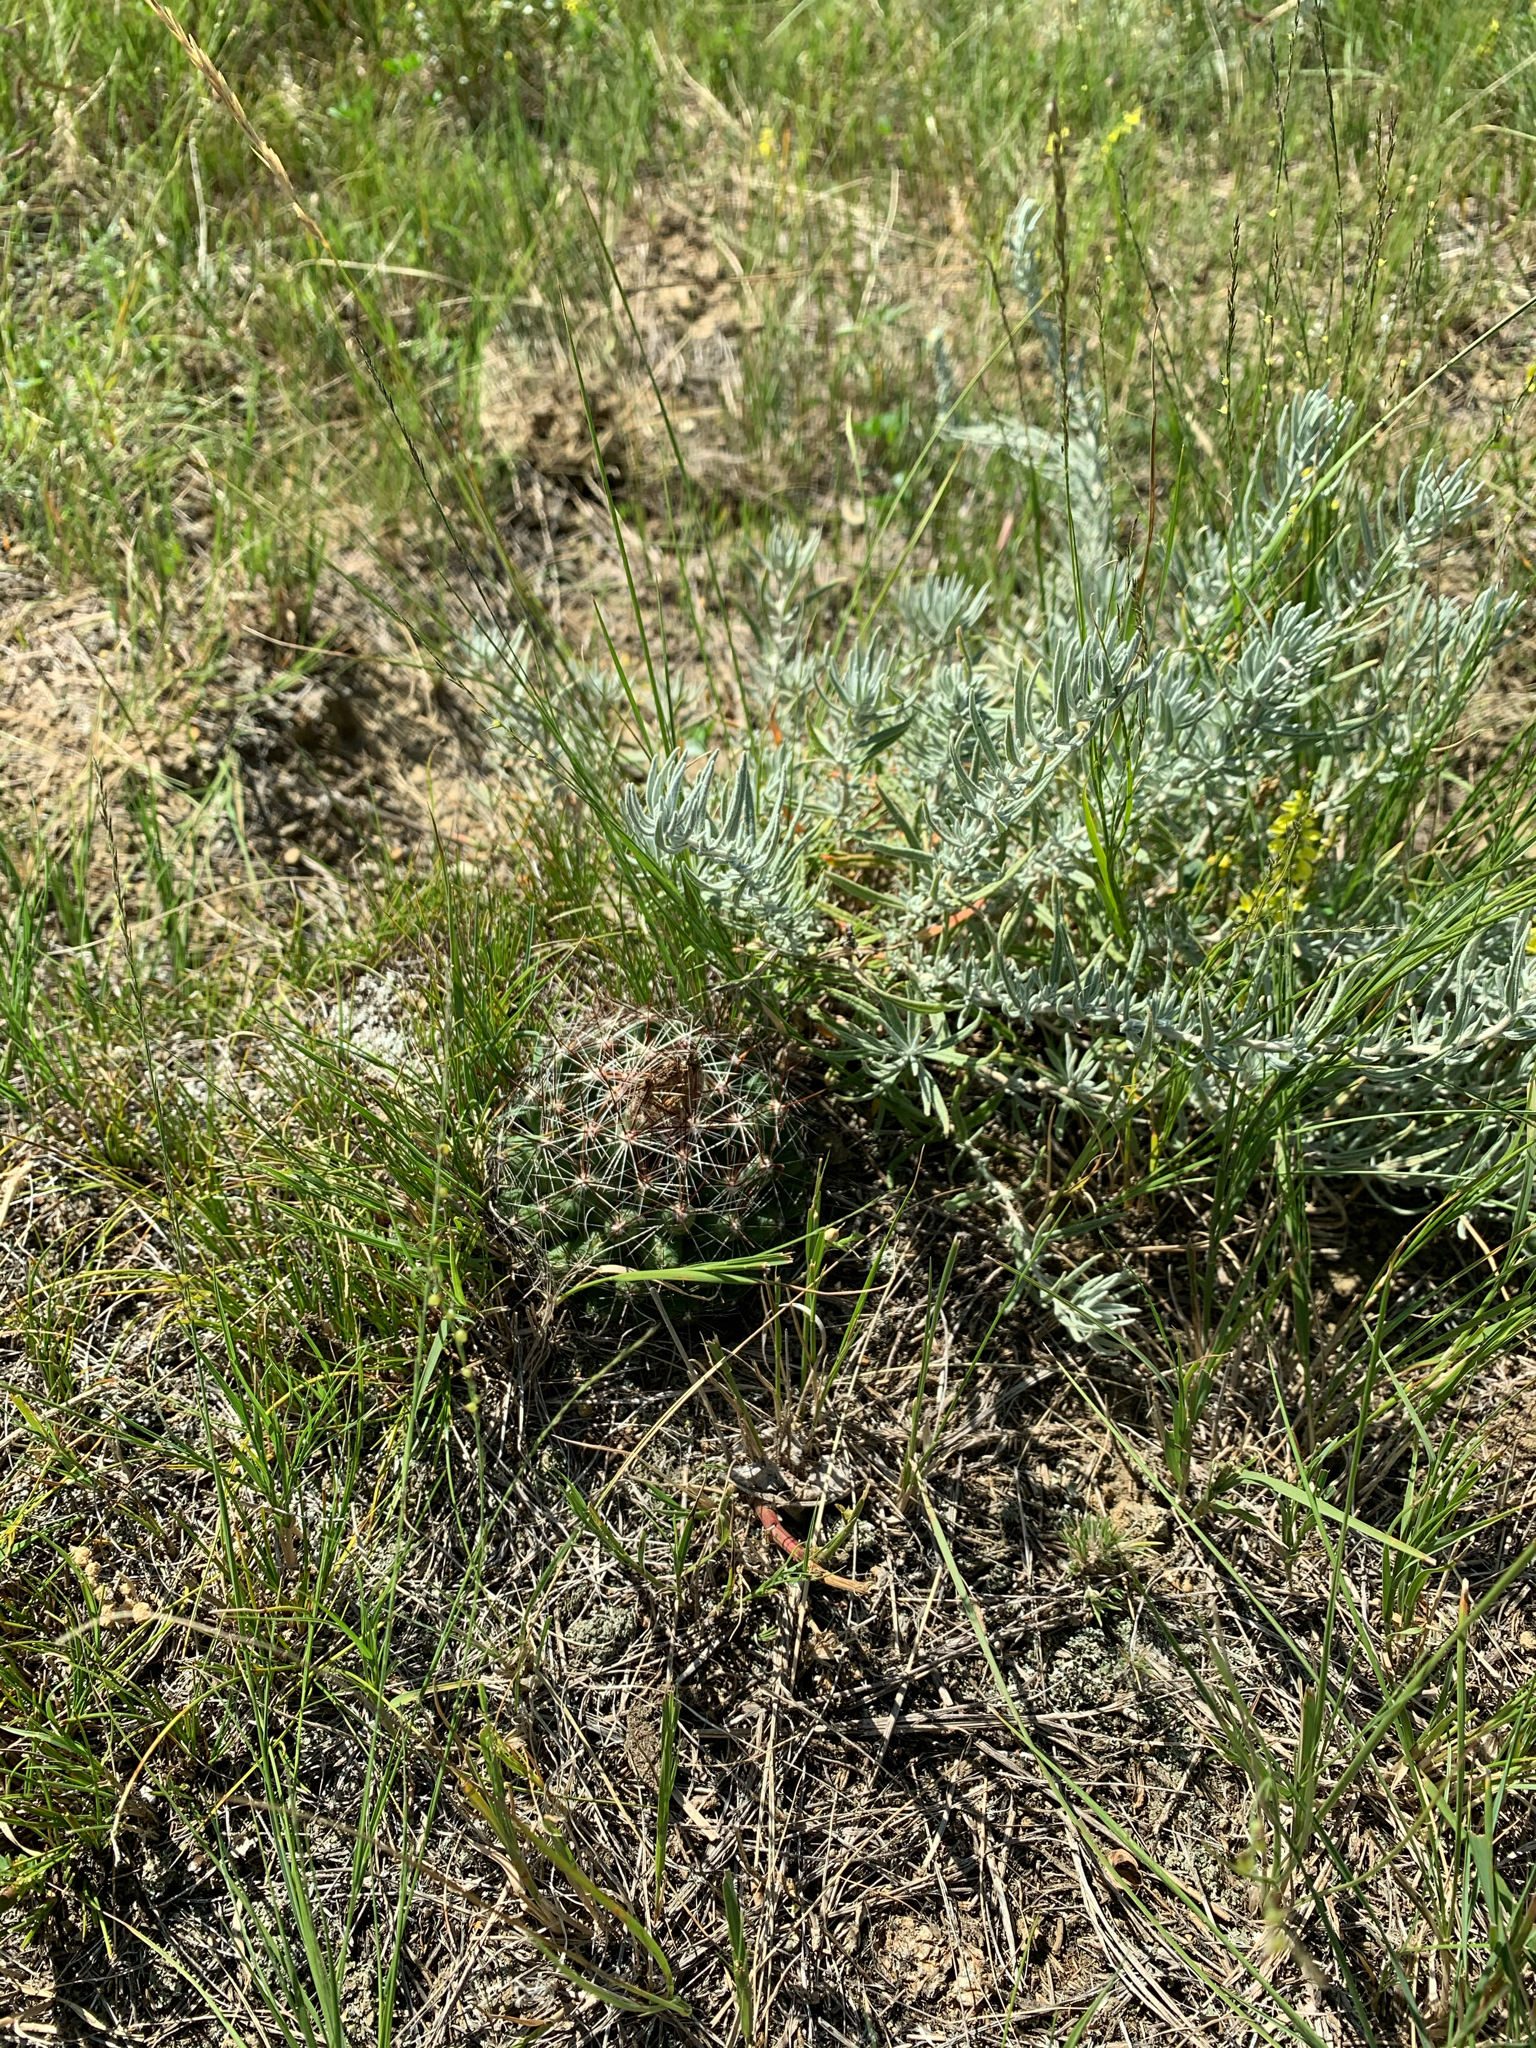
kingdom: Plantae
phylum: Tracheophyta
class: Magnoliopsida
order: Caryophyllales
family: Cactaceae
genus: Pelecyphora
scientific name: Pelecyphora vivipara
